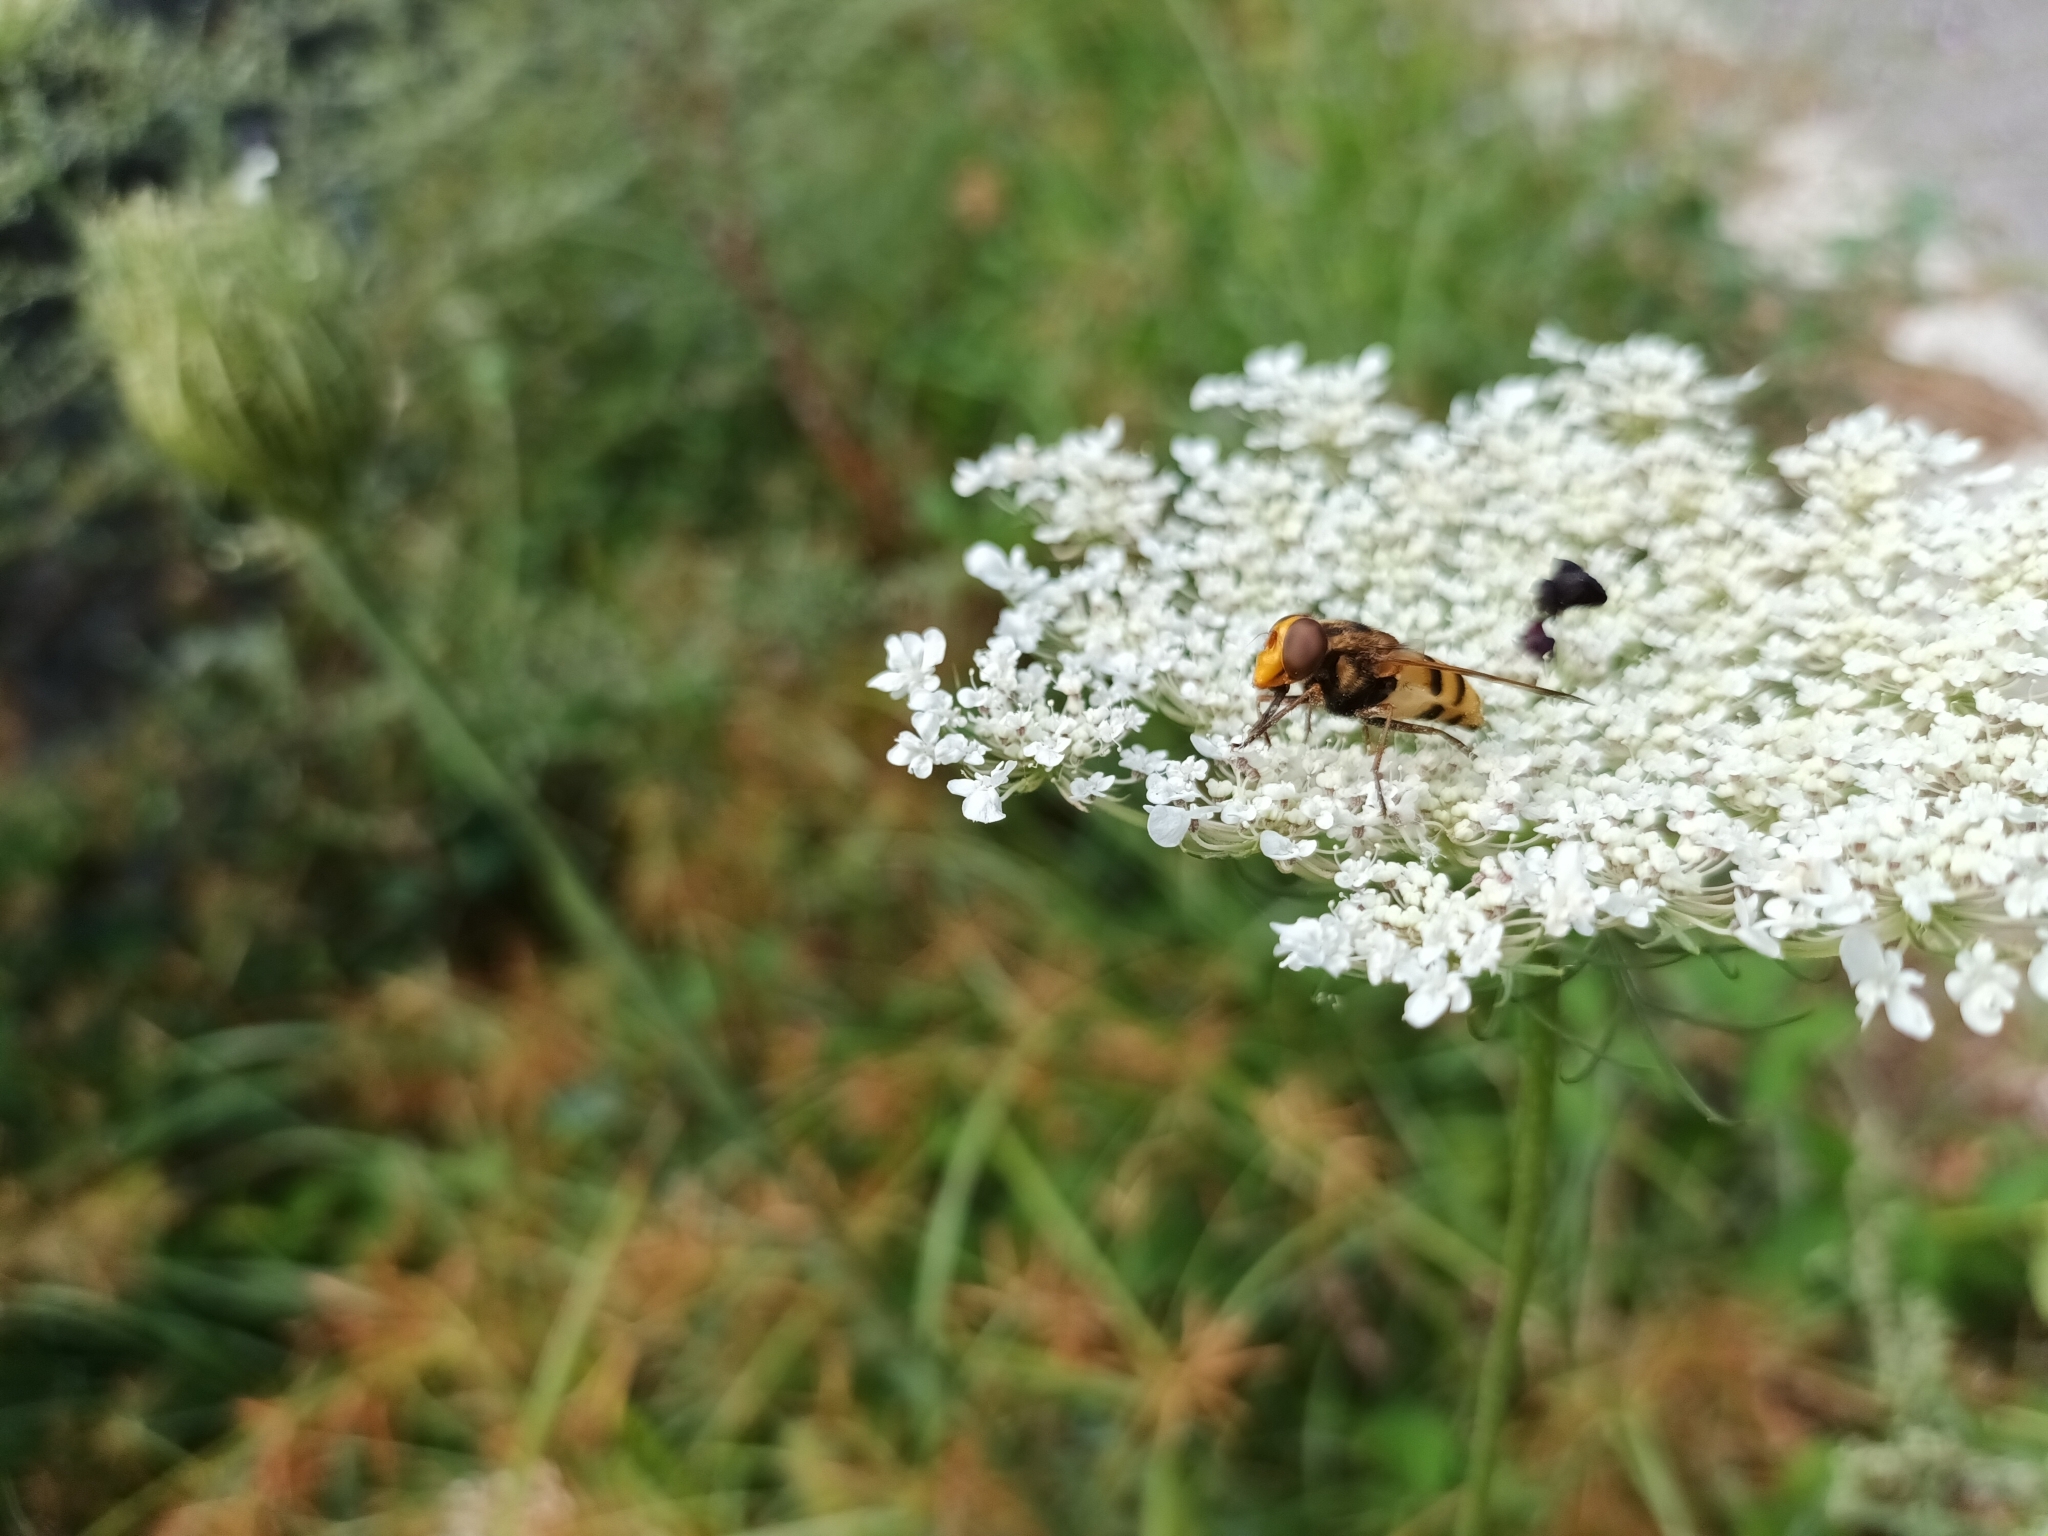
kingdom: Animalia
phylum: Arthropoda
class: Insecta
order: Diptera
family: Syrphidae
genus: Volucella
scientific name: Volucella inanis
